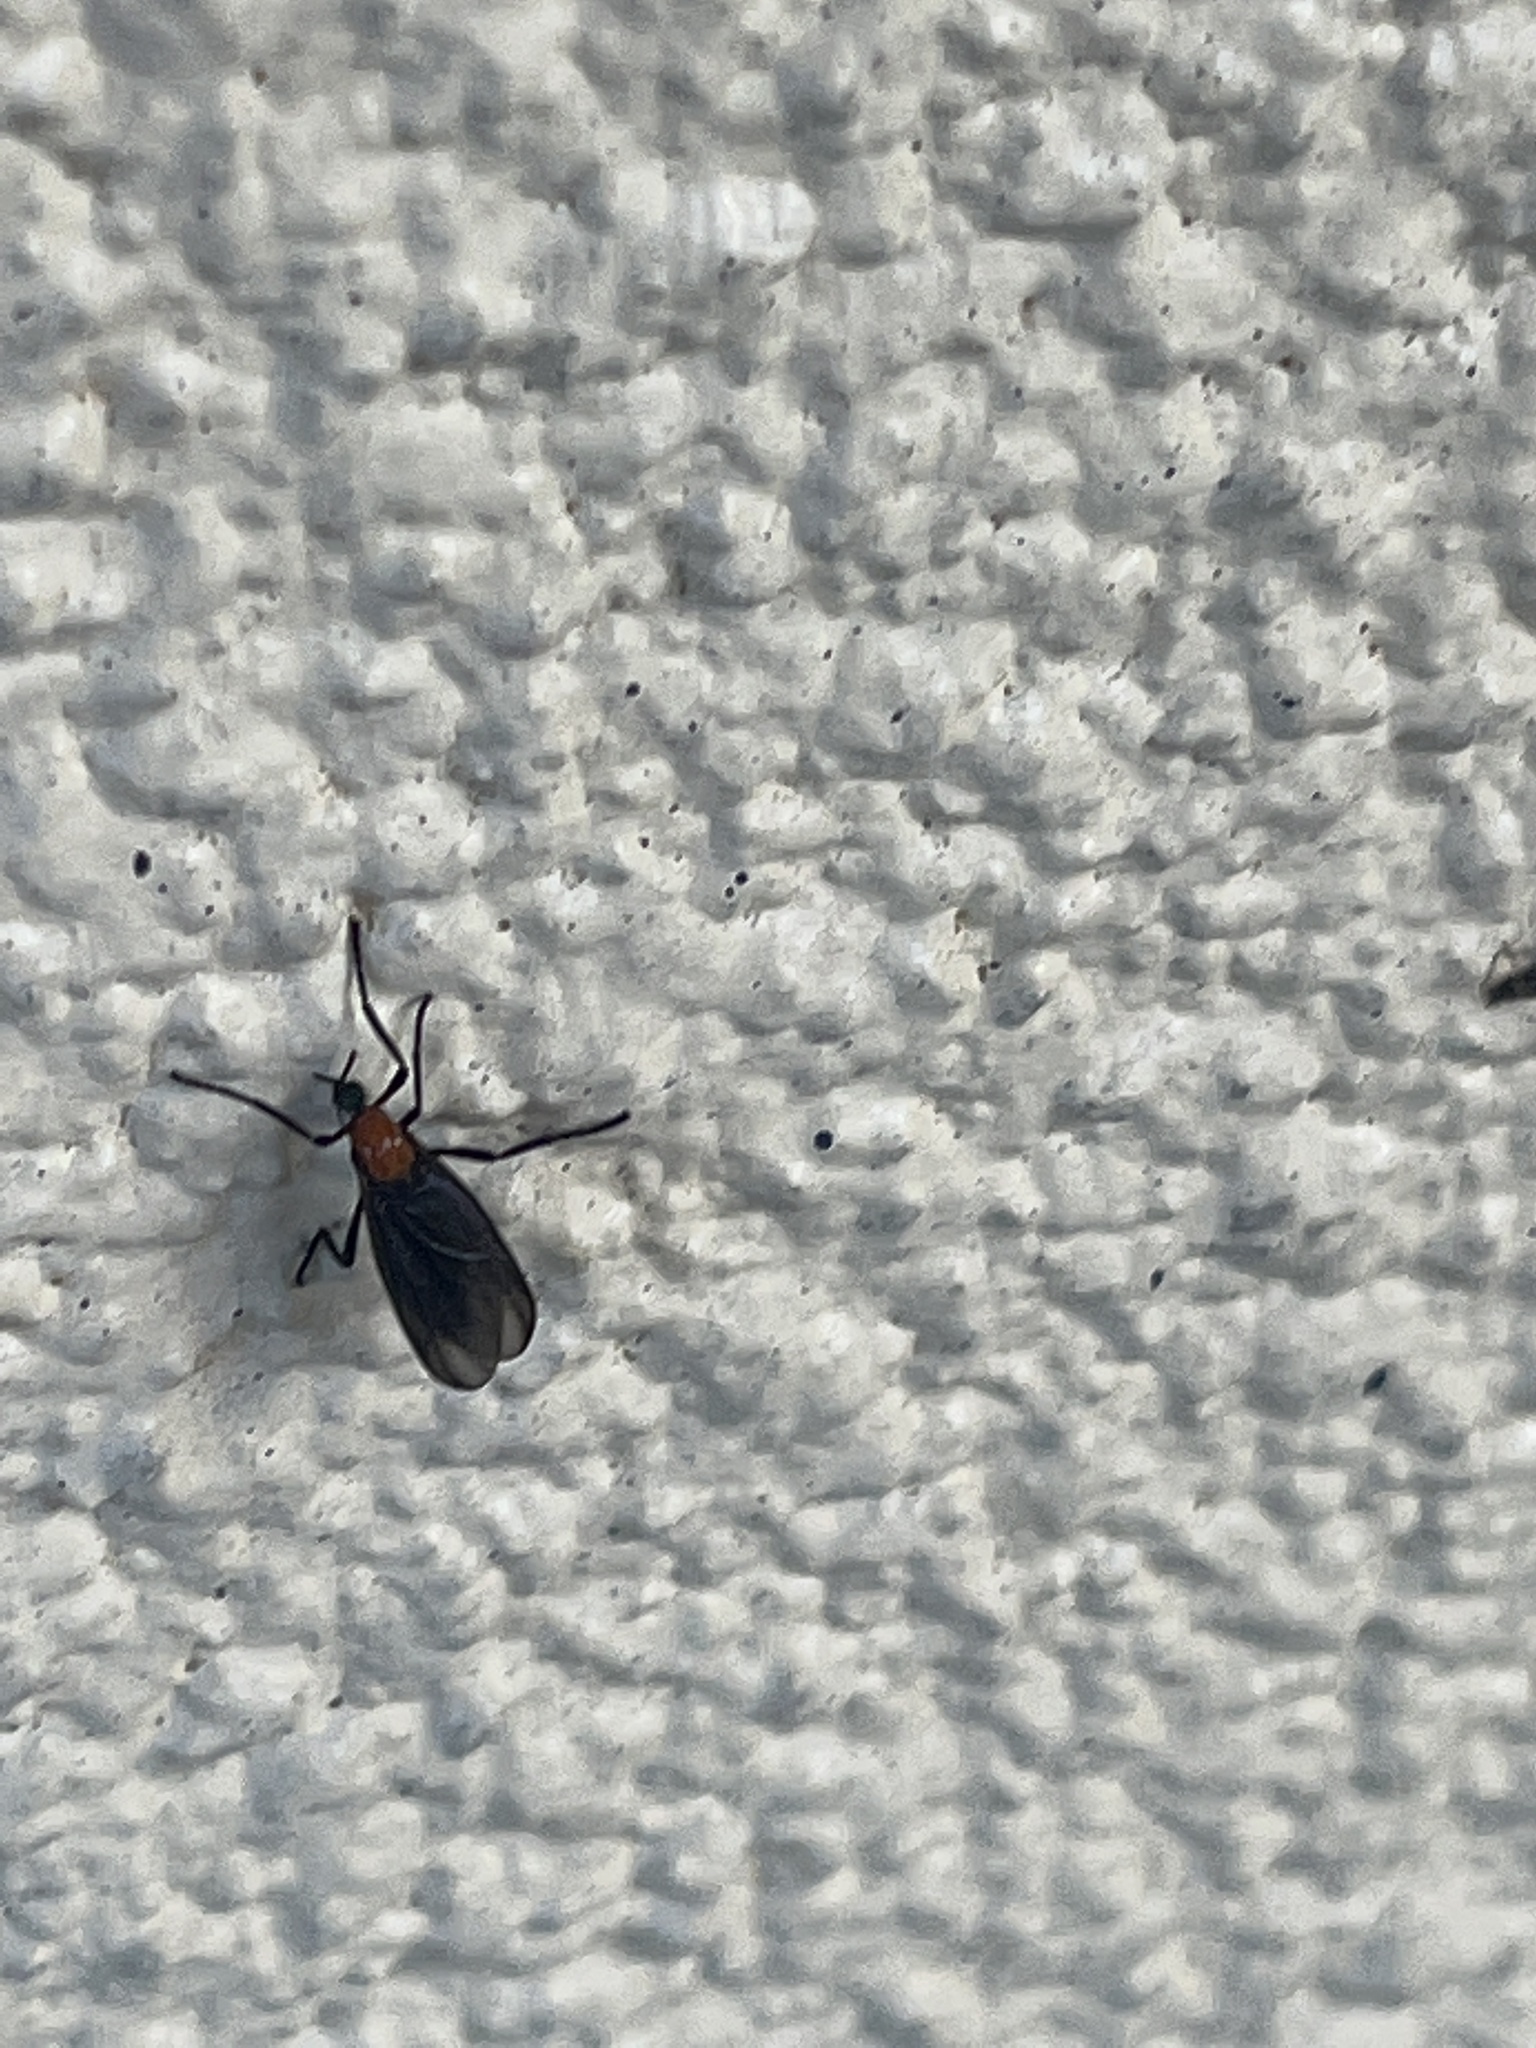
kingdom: Animalia
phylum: Arthropoda
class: Insecta
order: Diptera
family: Bibionidae
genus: Plecia
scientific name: Plecia nearctica
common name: March fly
